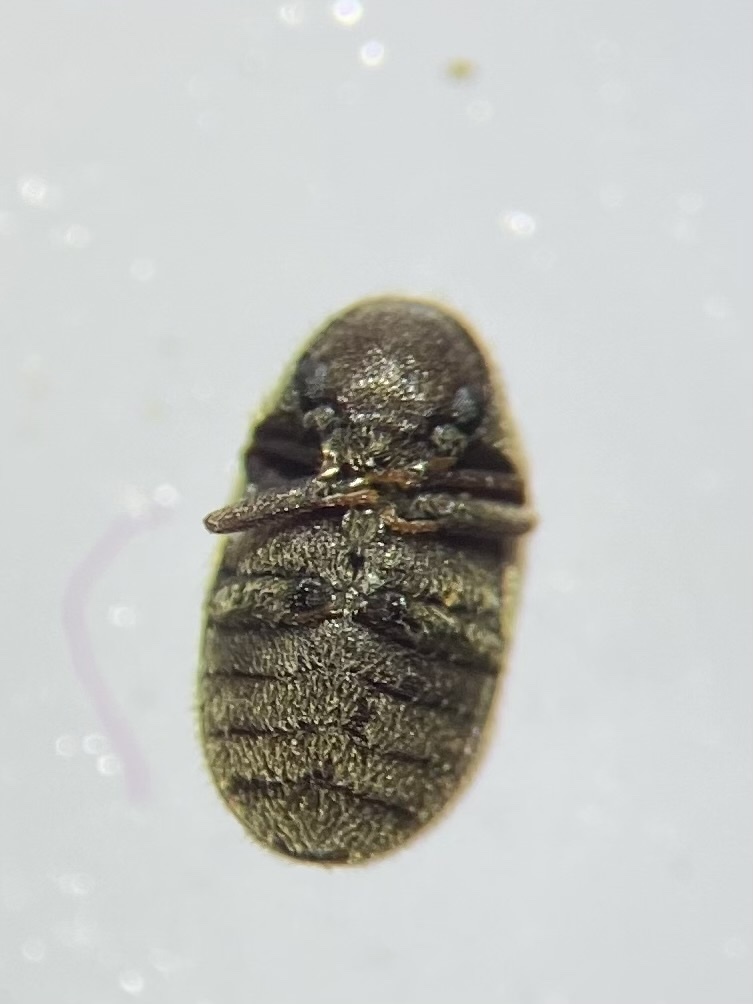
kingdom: Animalia
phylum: Arthropoda
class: Insecta
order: Coleoptera
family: Anobiidae
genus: Protheca
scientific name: Protheca hispida
